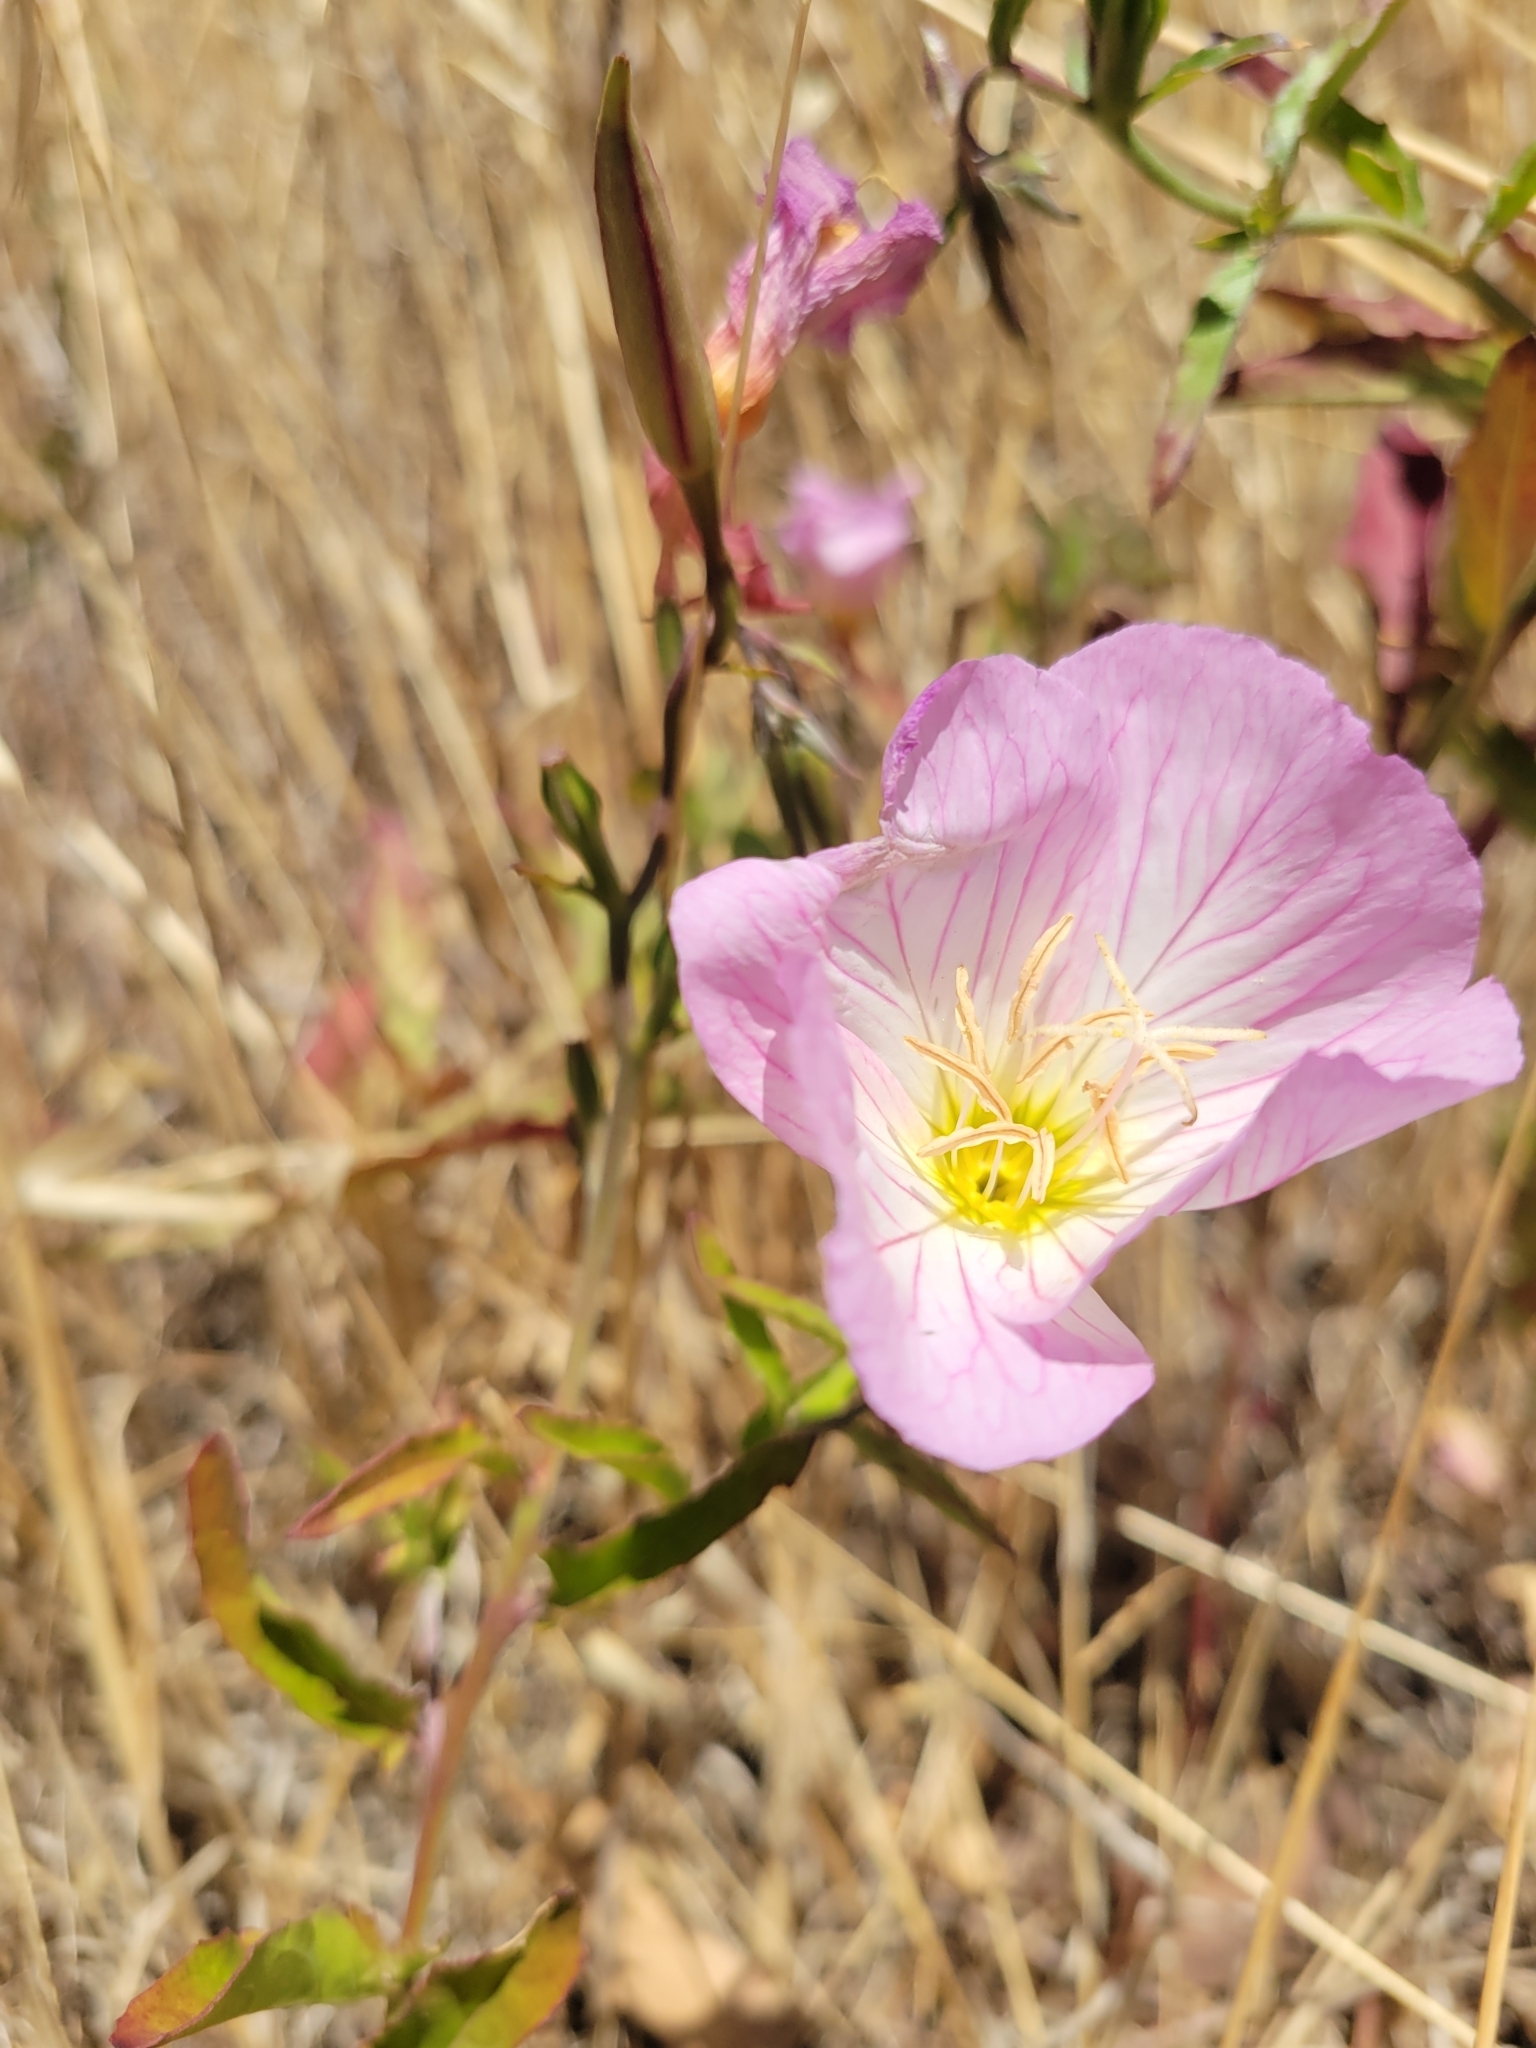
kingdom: Plantae
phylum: Tracheophyta
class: Magnoliopsida
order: Myrtales
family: Onagraceae
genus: Oenothera
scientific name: Oenothera speciosa
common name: White evening-primrose
